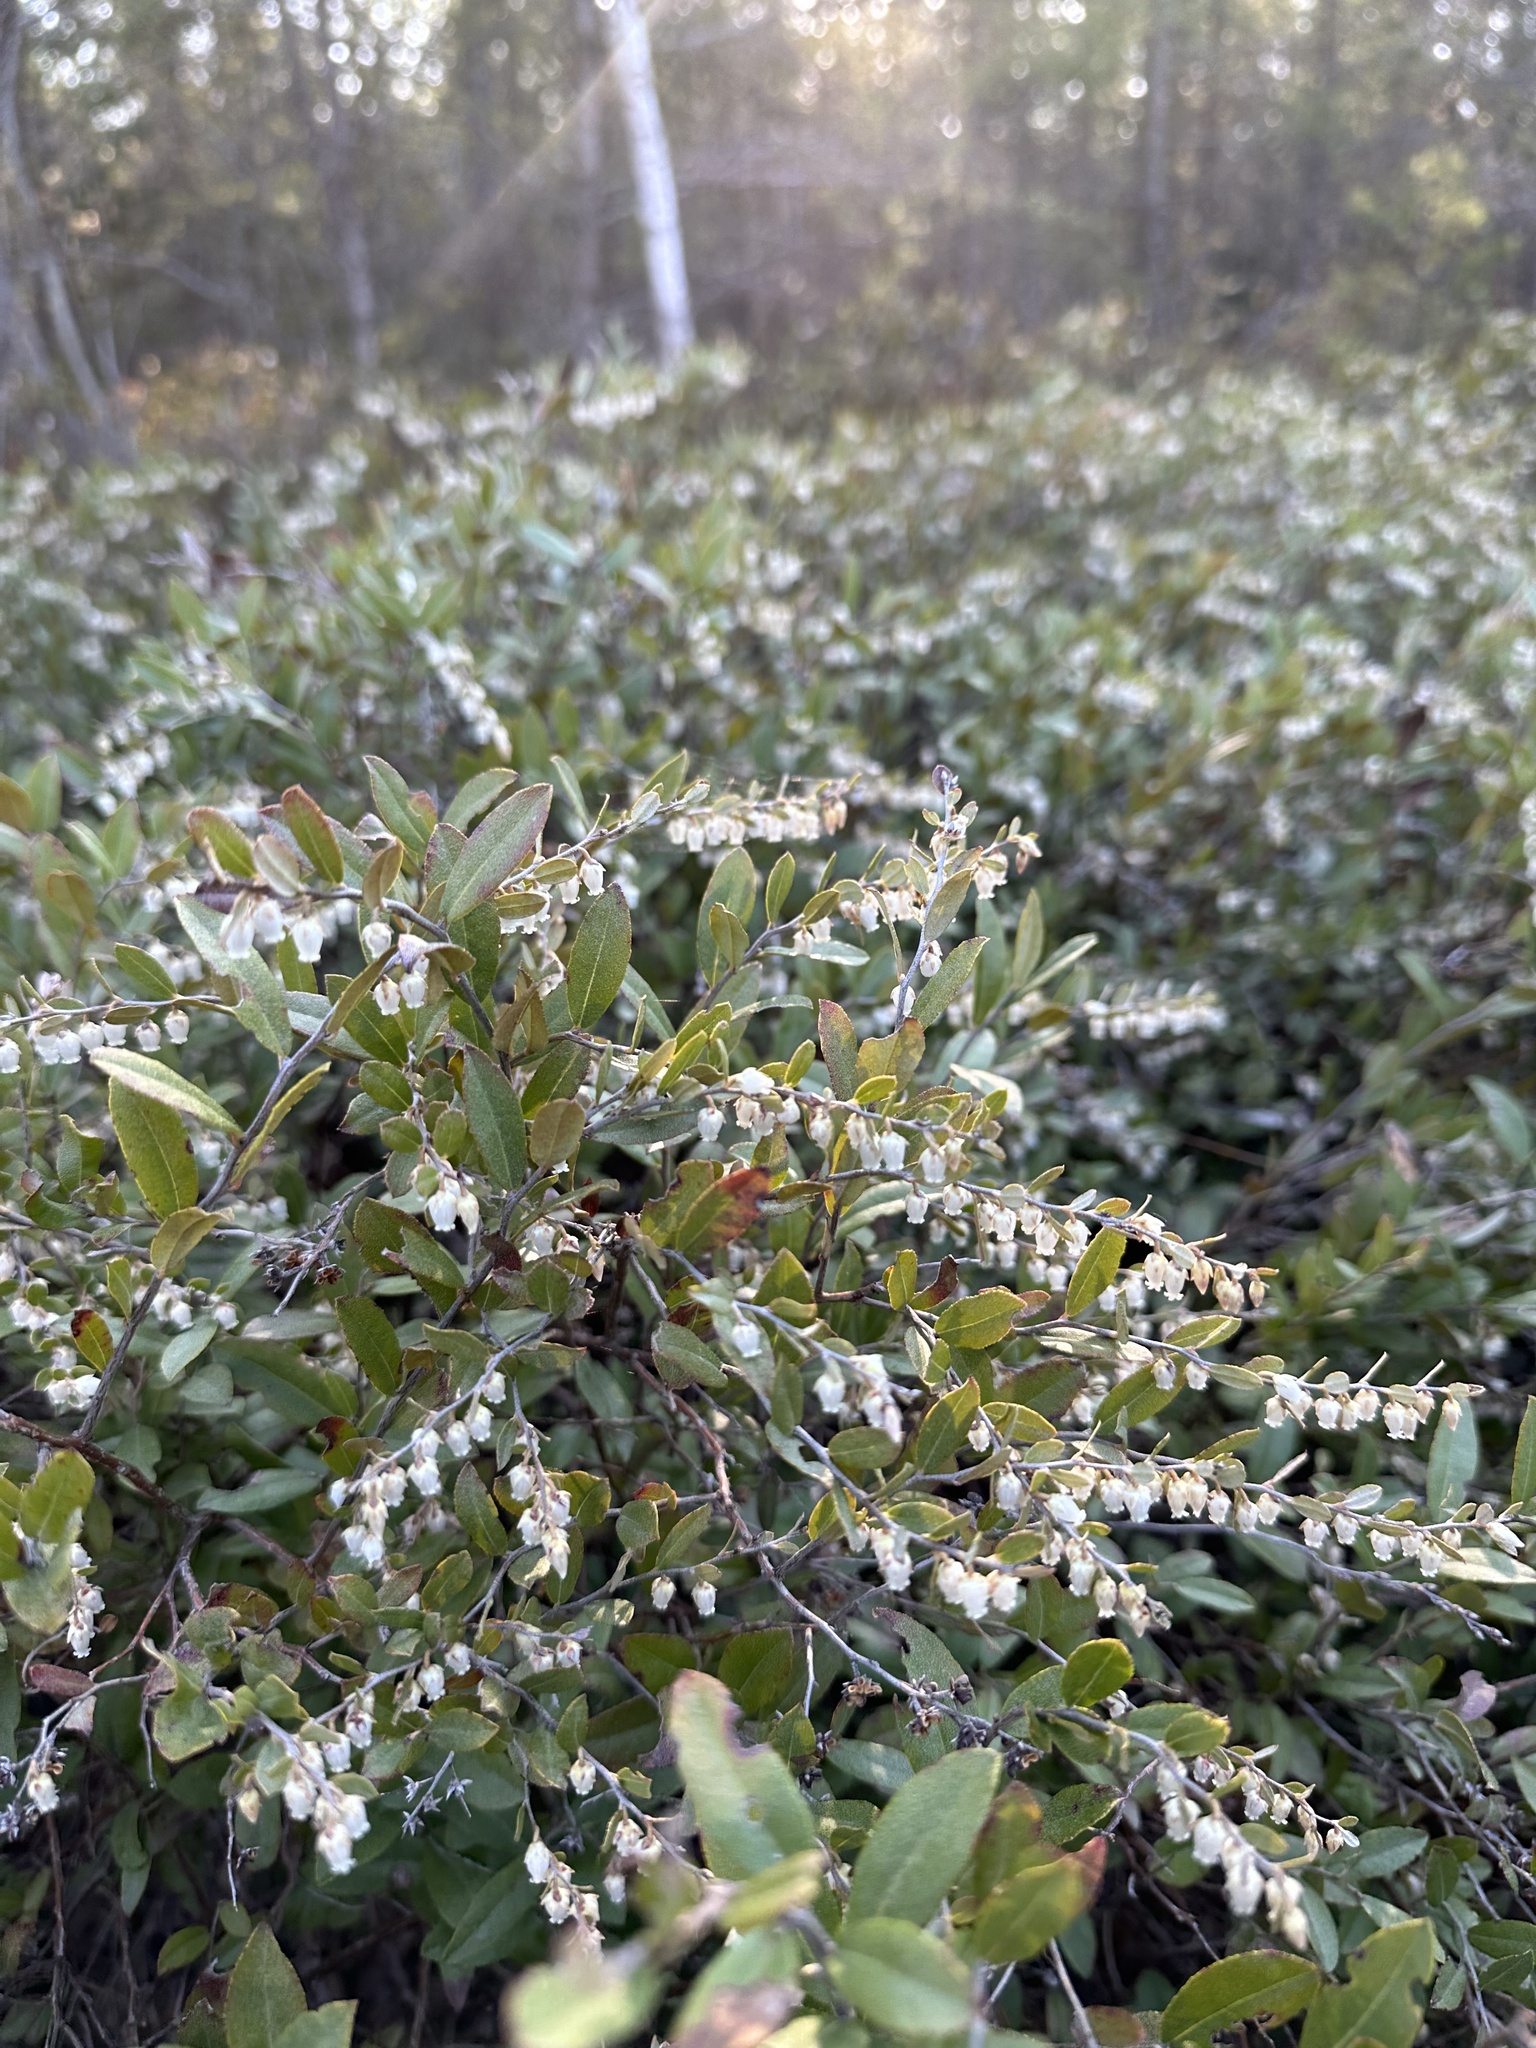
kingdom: Plantae
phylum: Tracheophyta
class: Magnoliopsida
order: Ericales
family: Ericaceae
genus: Chamaedaphne
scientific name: Chamaedaphne calyculata
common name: Leatherleaf
